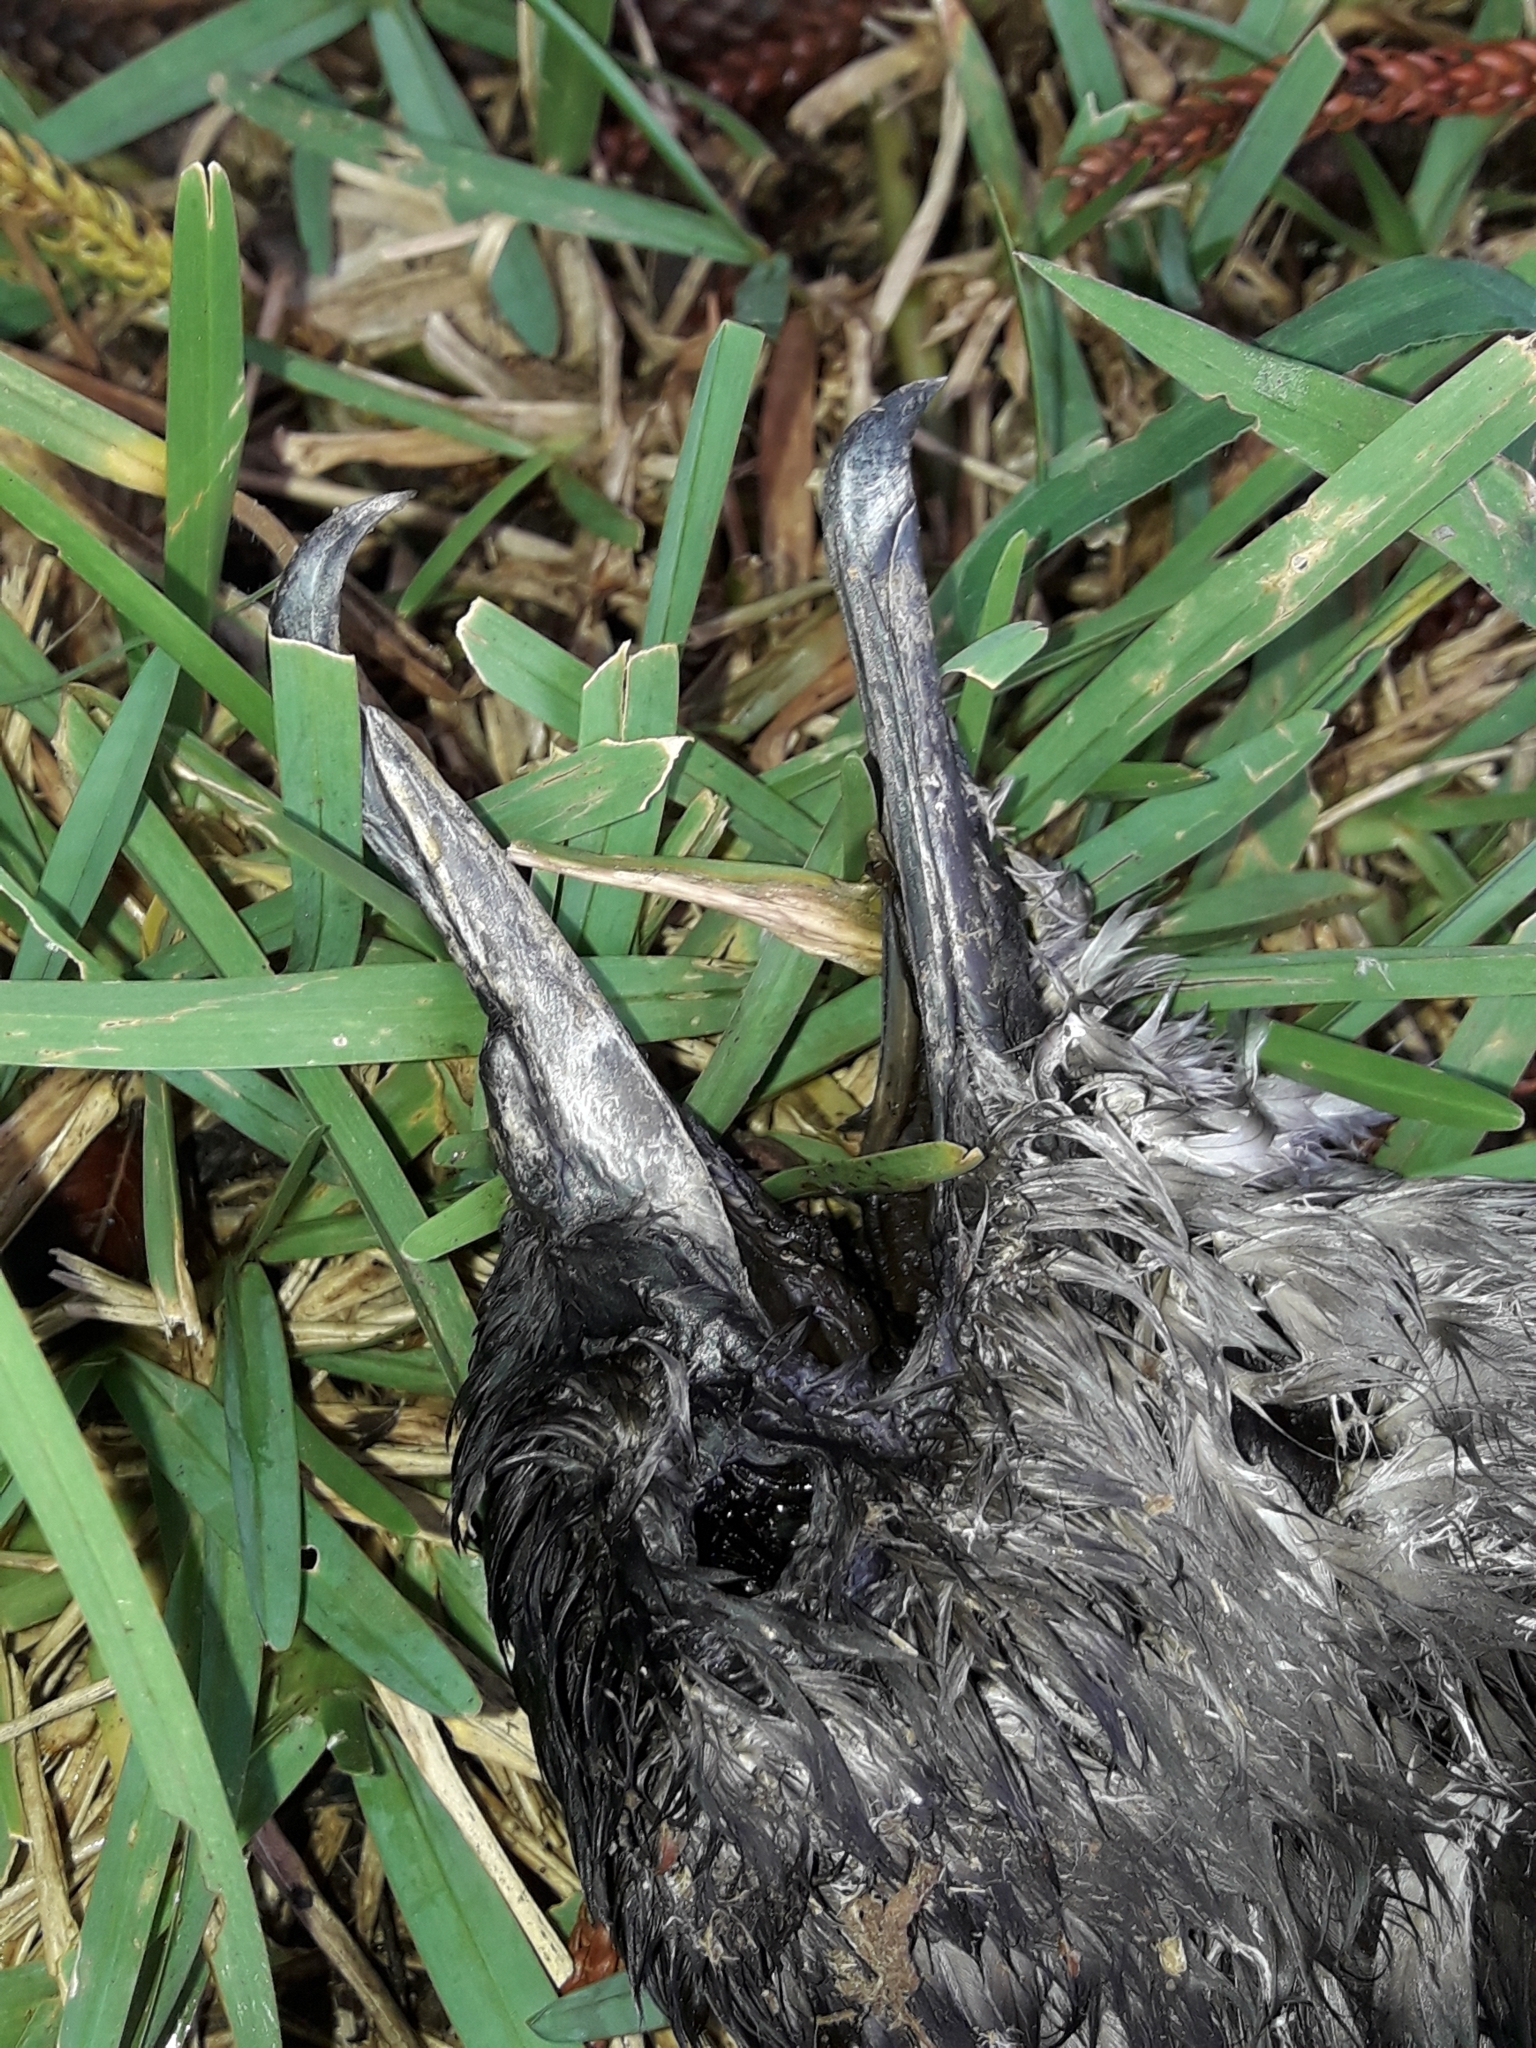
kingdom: Animalia
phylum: Chordata
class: Aves
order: Procellariiformes
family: Procellariidae
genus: Puffinus
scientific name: Puffinus pacificus
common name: Wedge-tailed shearwater
